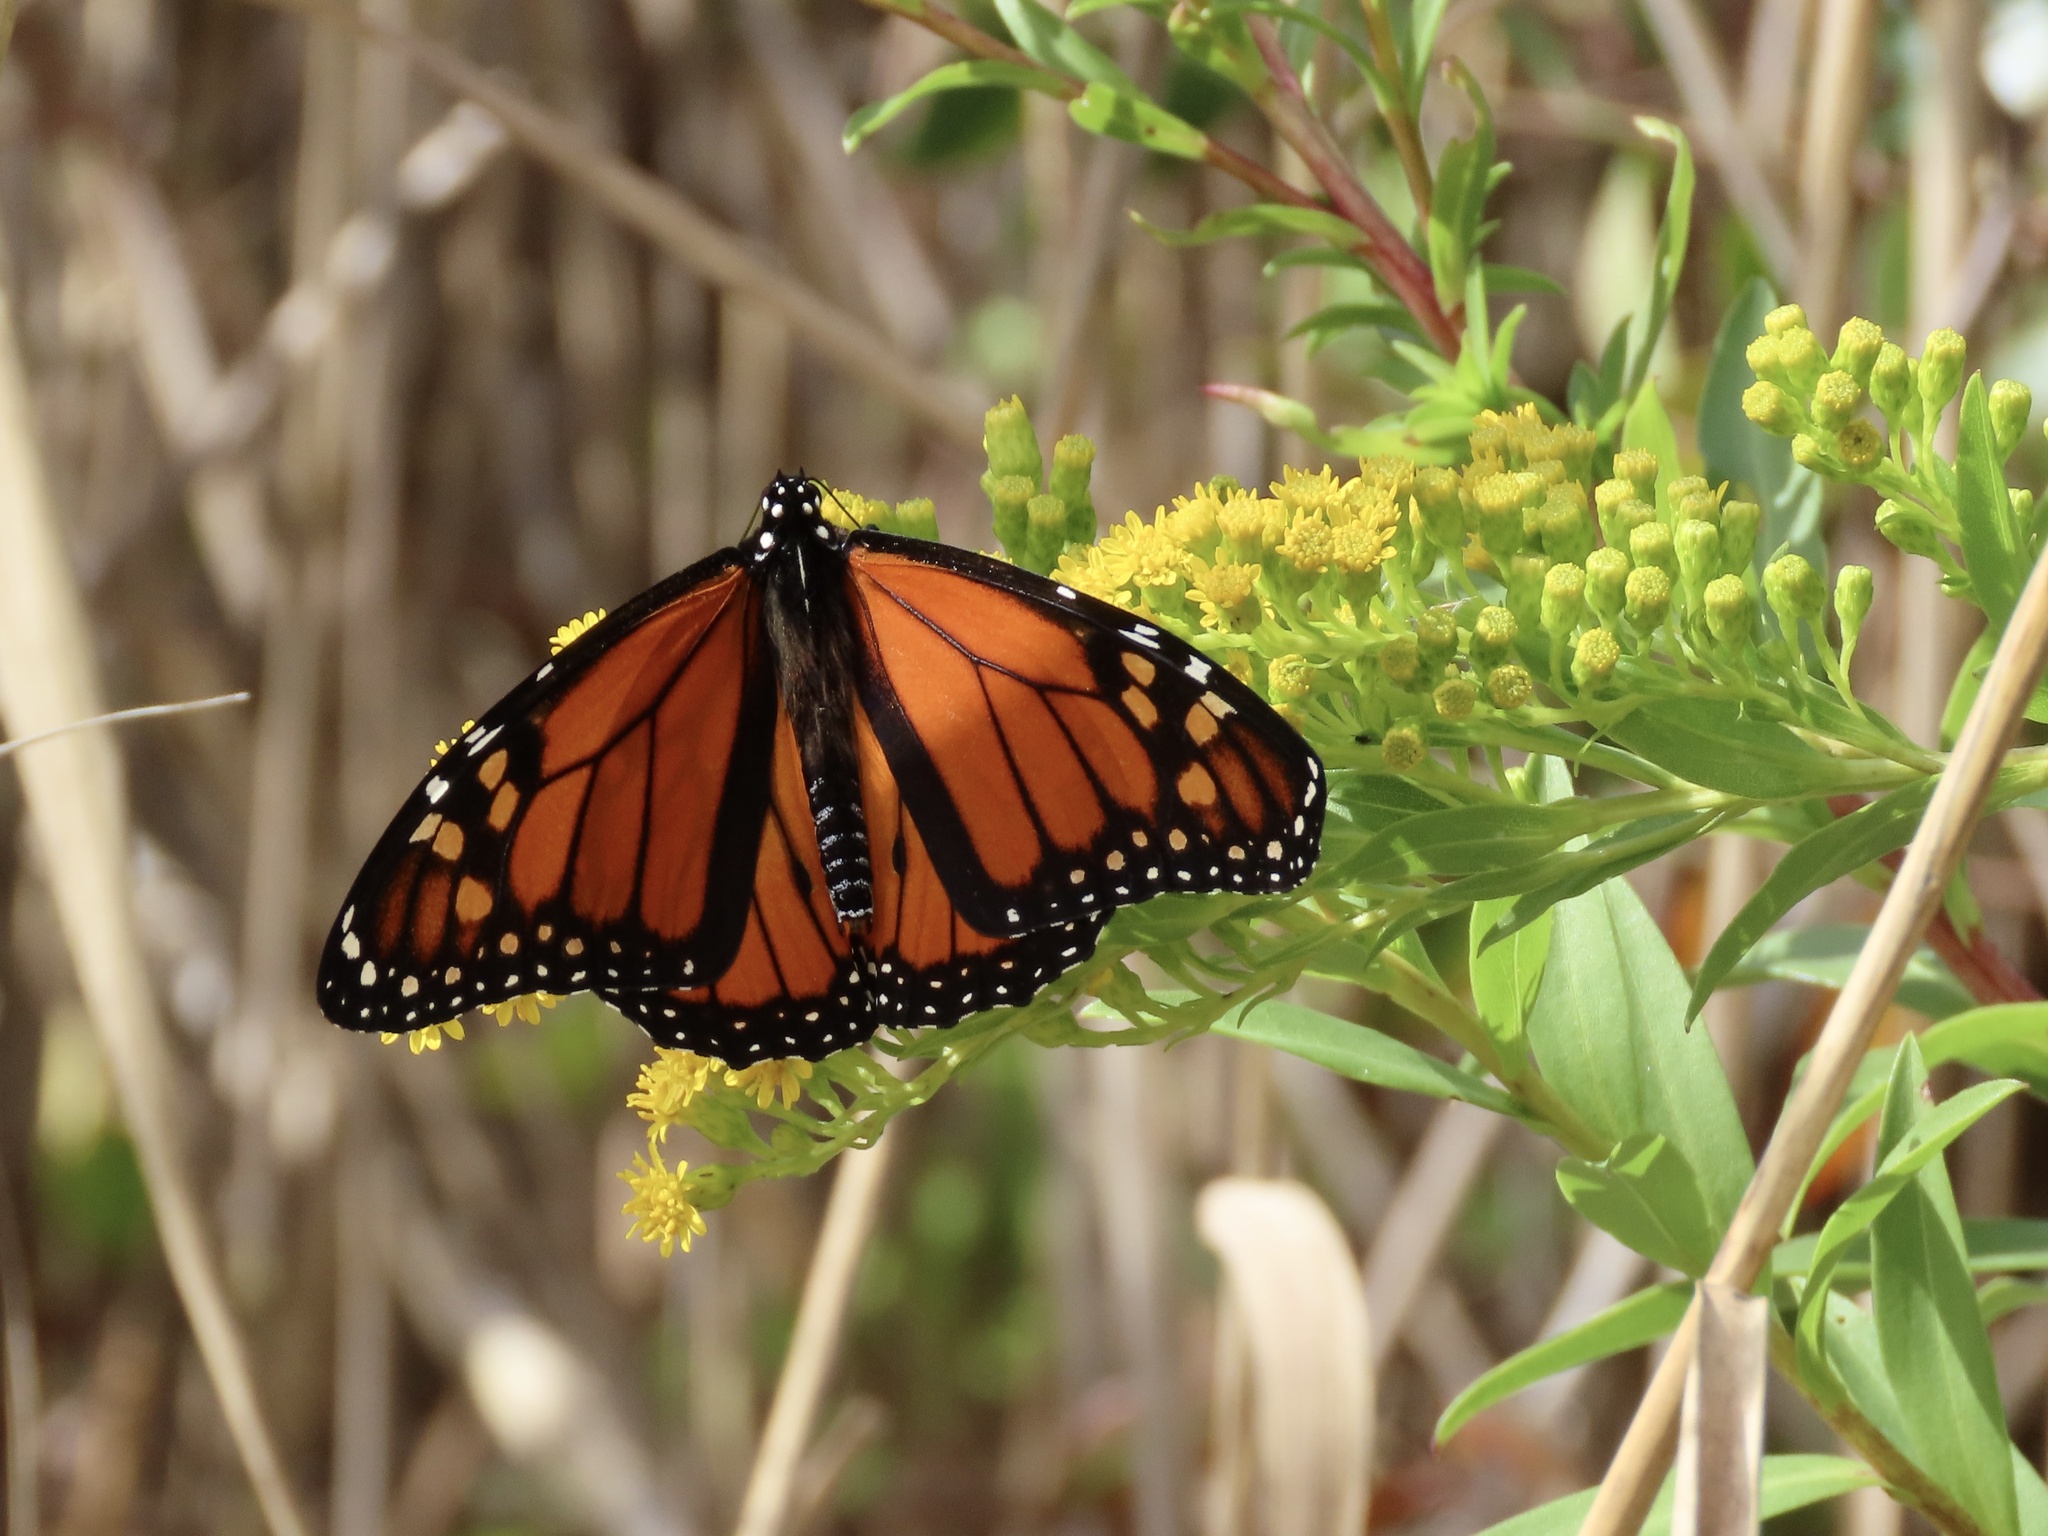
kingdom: Animalia
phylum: Arthropoda
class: Insecta
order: Lepidoptera
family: Nymphalidae
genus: Danaus
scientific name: Danaus plexippus
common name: Monarch
